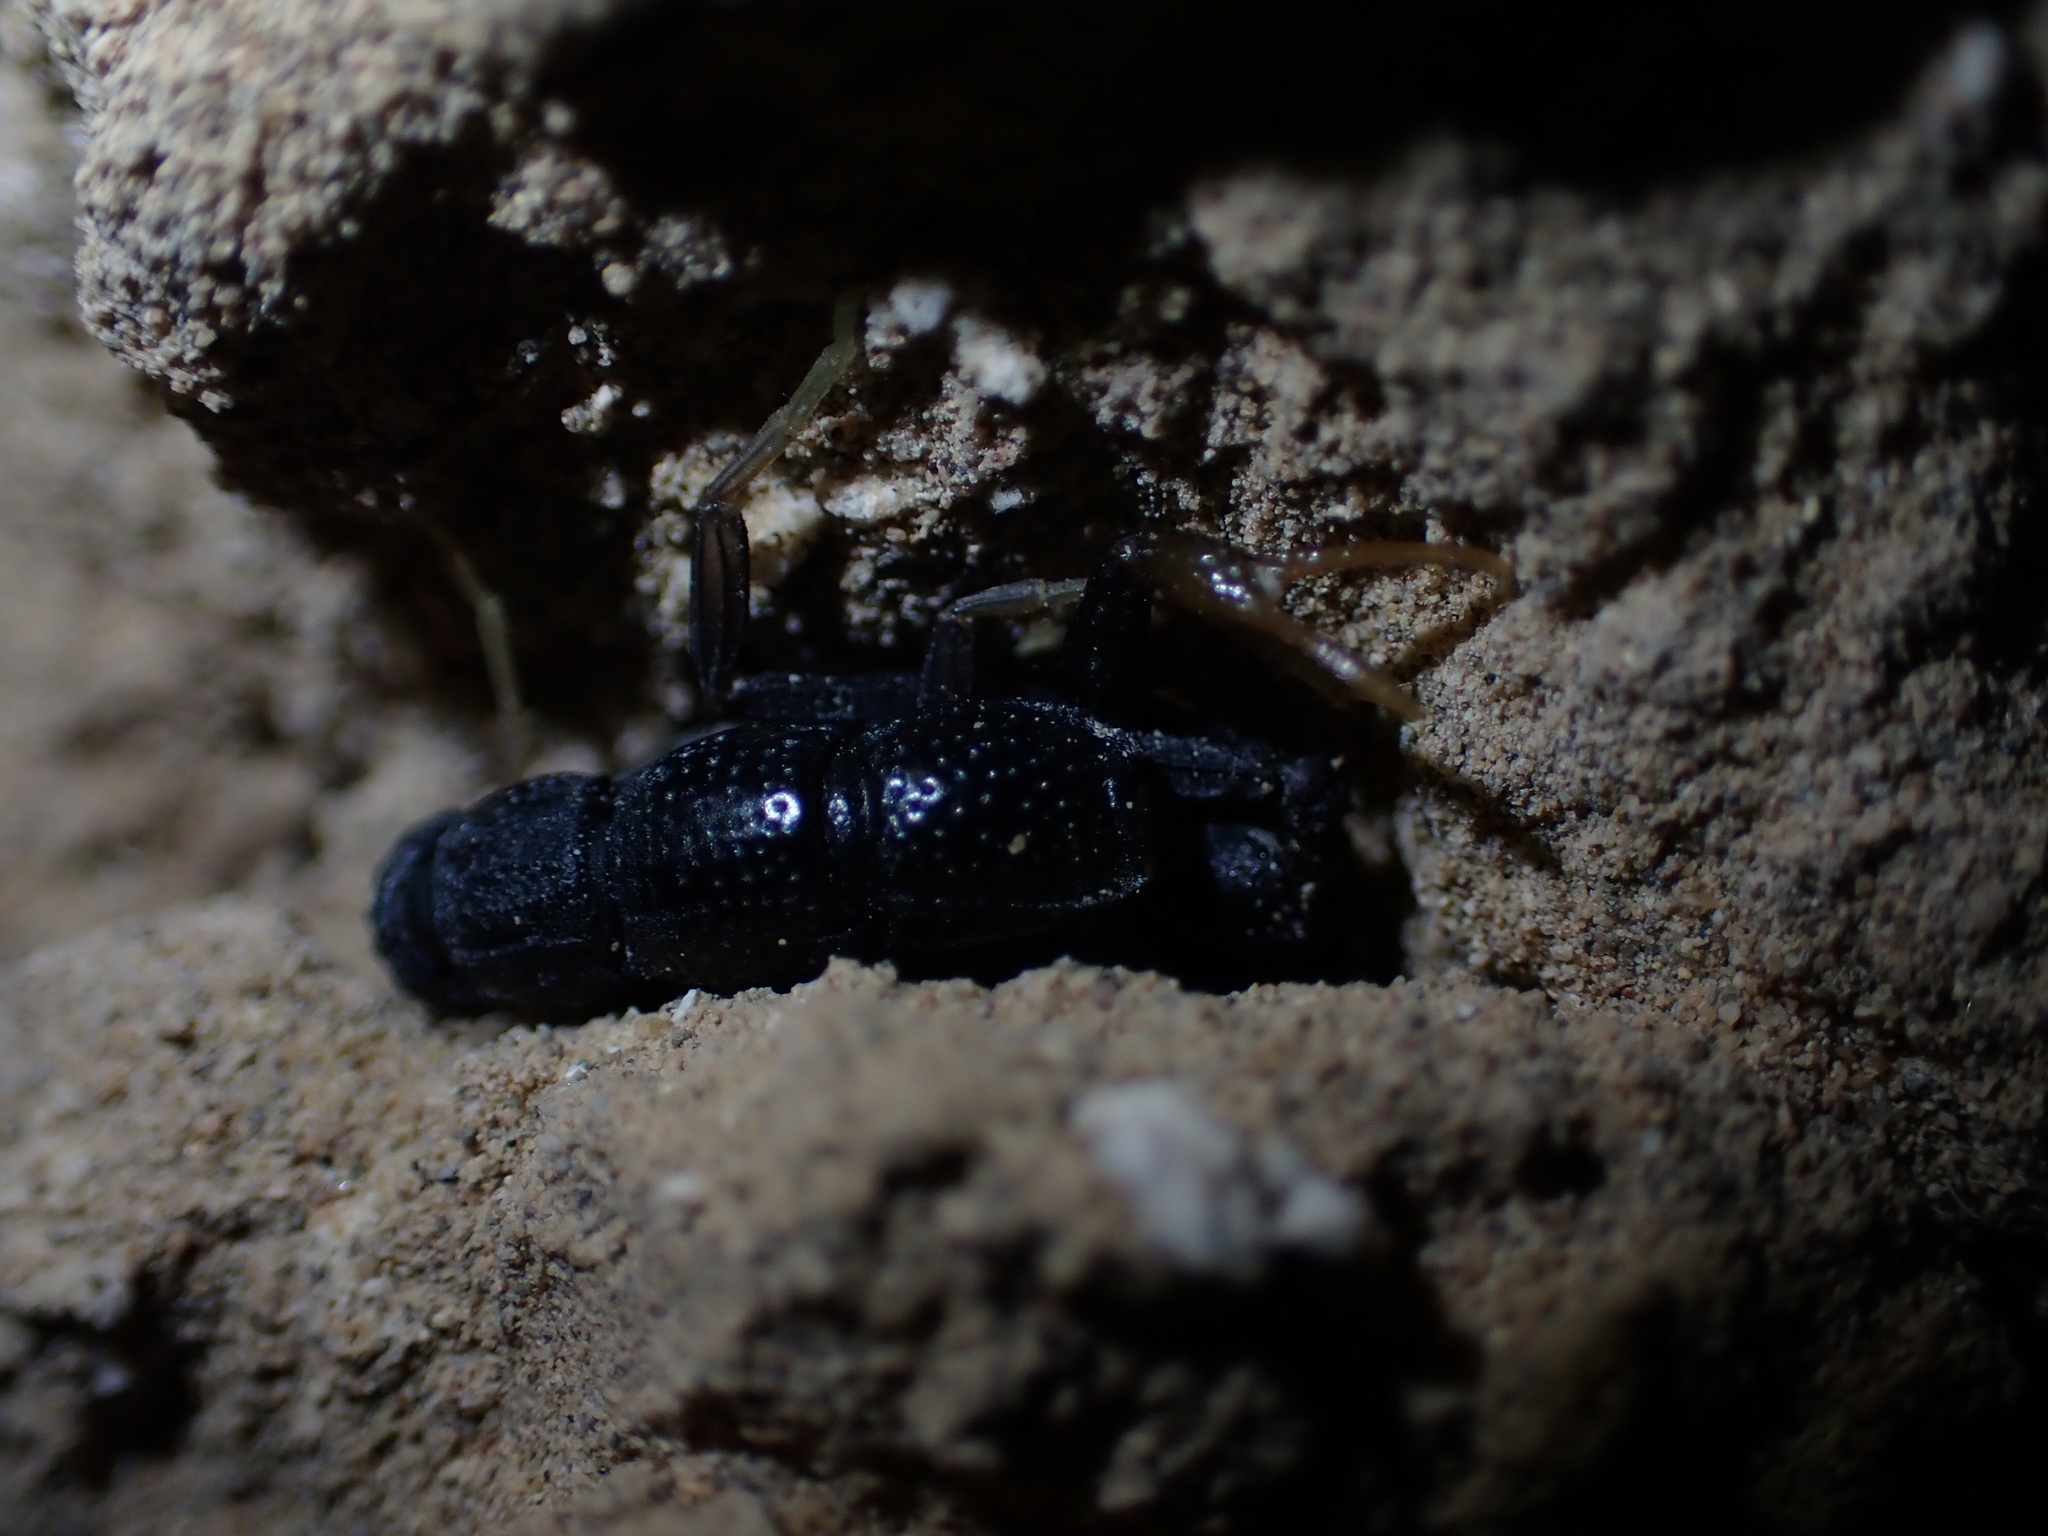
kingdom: Animalia
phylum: Arthropoda
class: Arachnida
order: Scorpiones
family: Buthidae
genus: Orthochirus
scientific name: Orthochirus mesopotamicus
